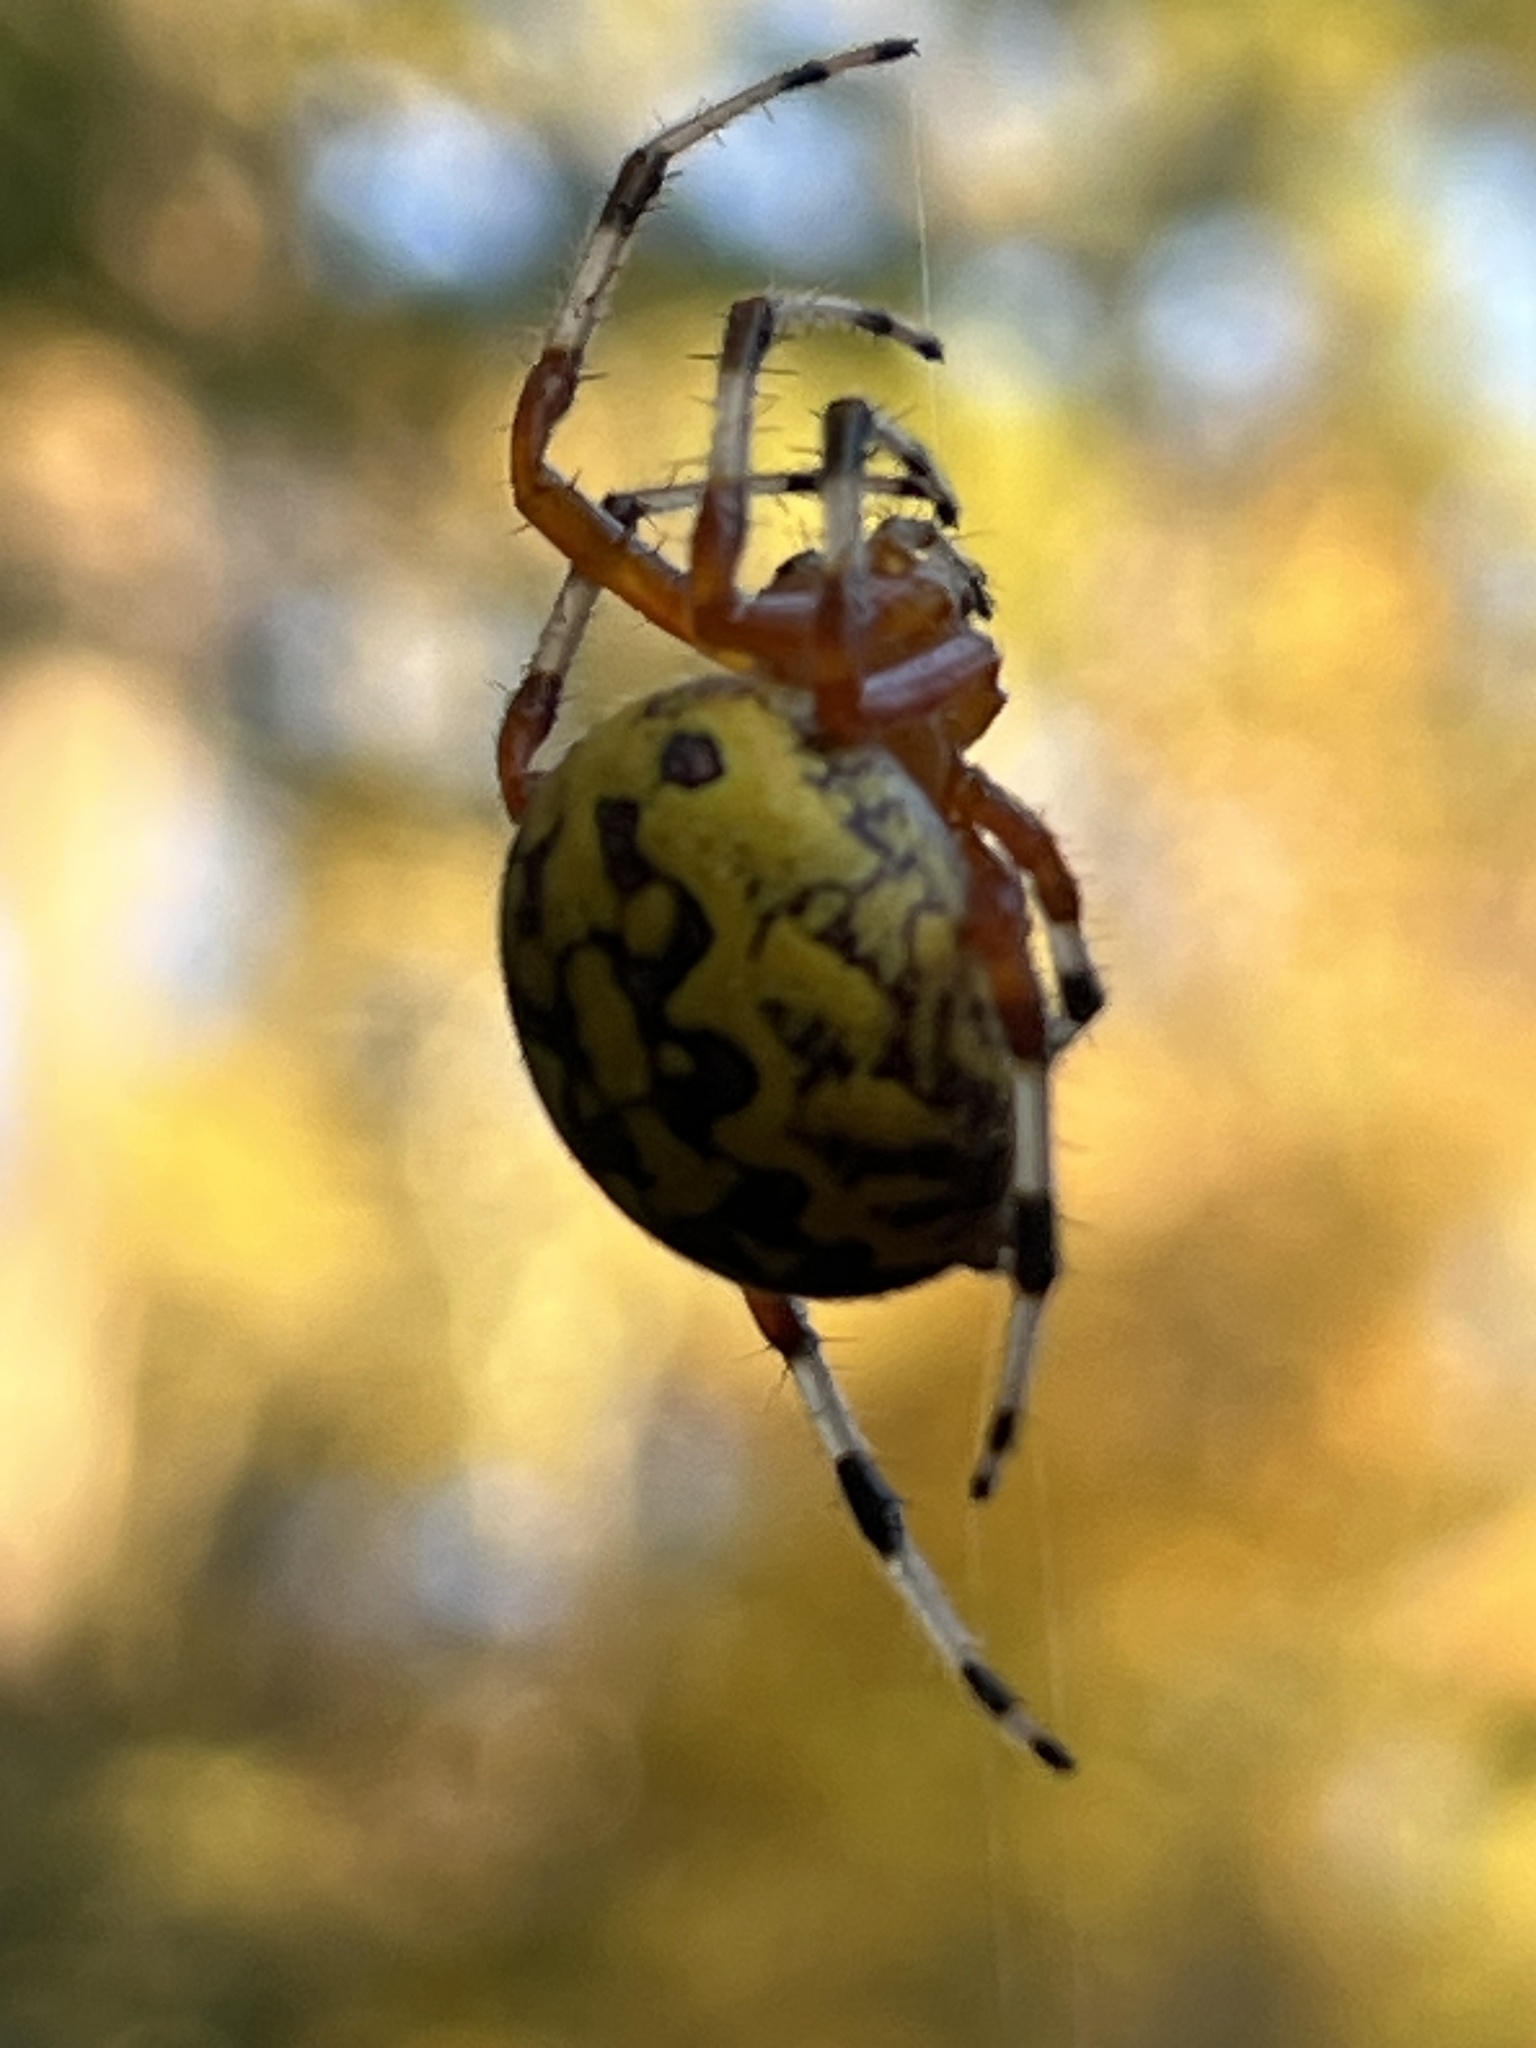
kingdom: Animalia
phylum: Arthropoda
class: Arachnida
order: Araneae
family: Araneidae
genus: Araneus
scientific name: Araneus marmoreus
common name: Marbled orbweaver
